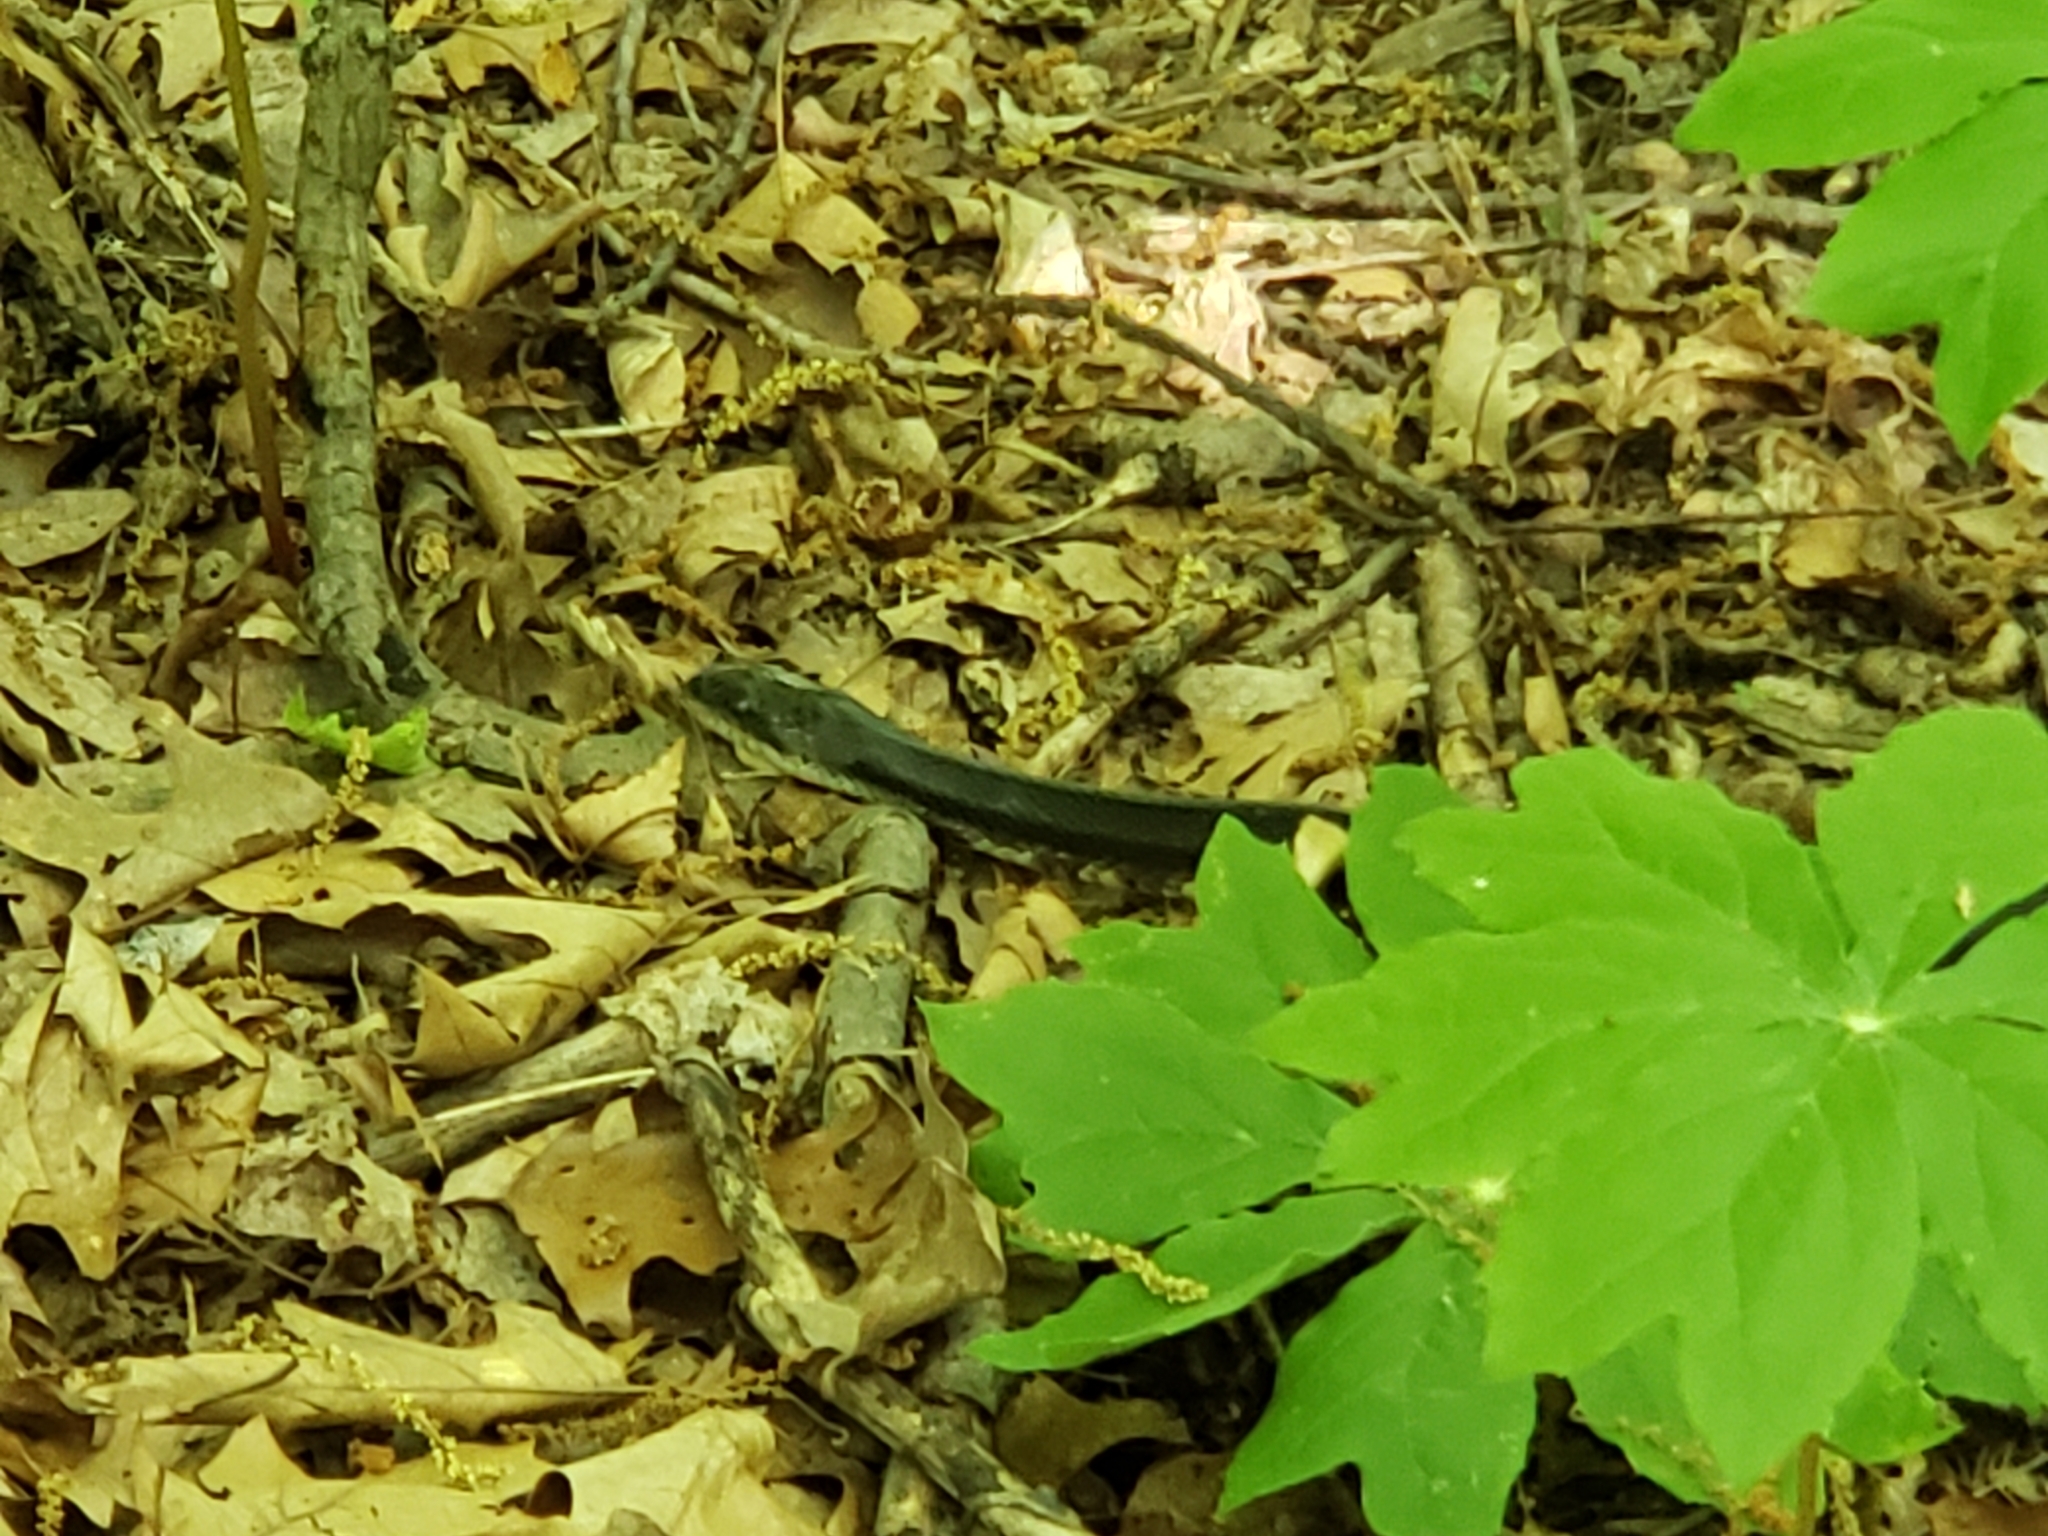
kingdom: Animalia
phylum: Chordata
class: Squamata
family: Colubridae
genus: Pantherophis
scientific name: Pantherophis spiloides
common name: Gray rat snake
